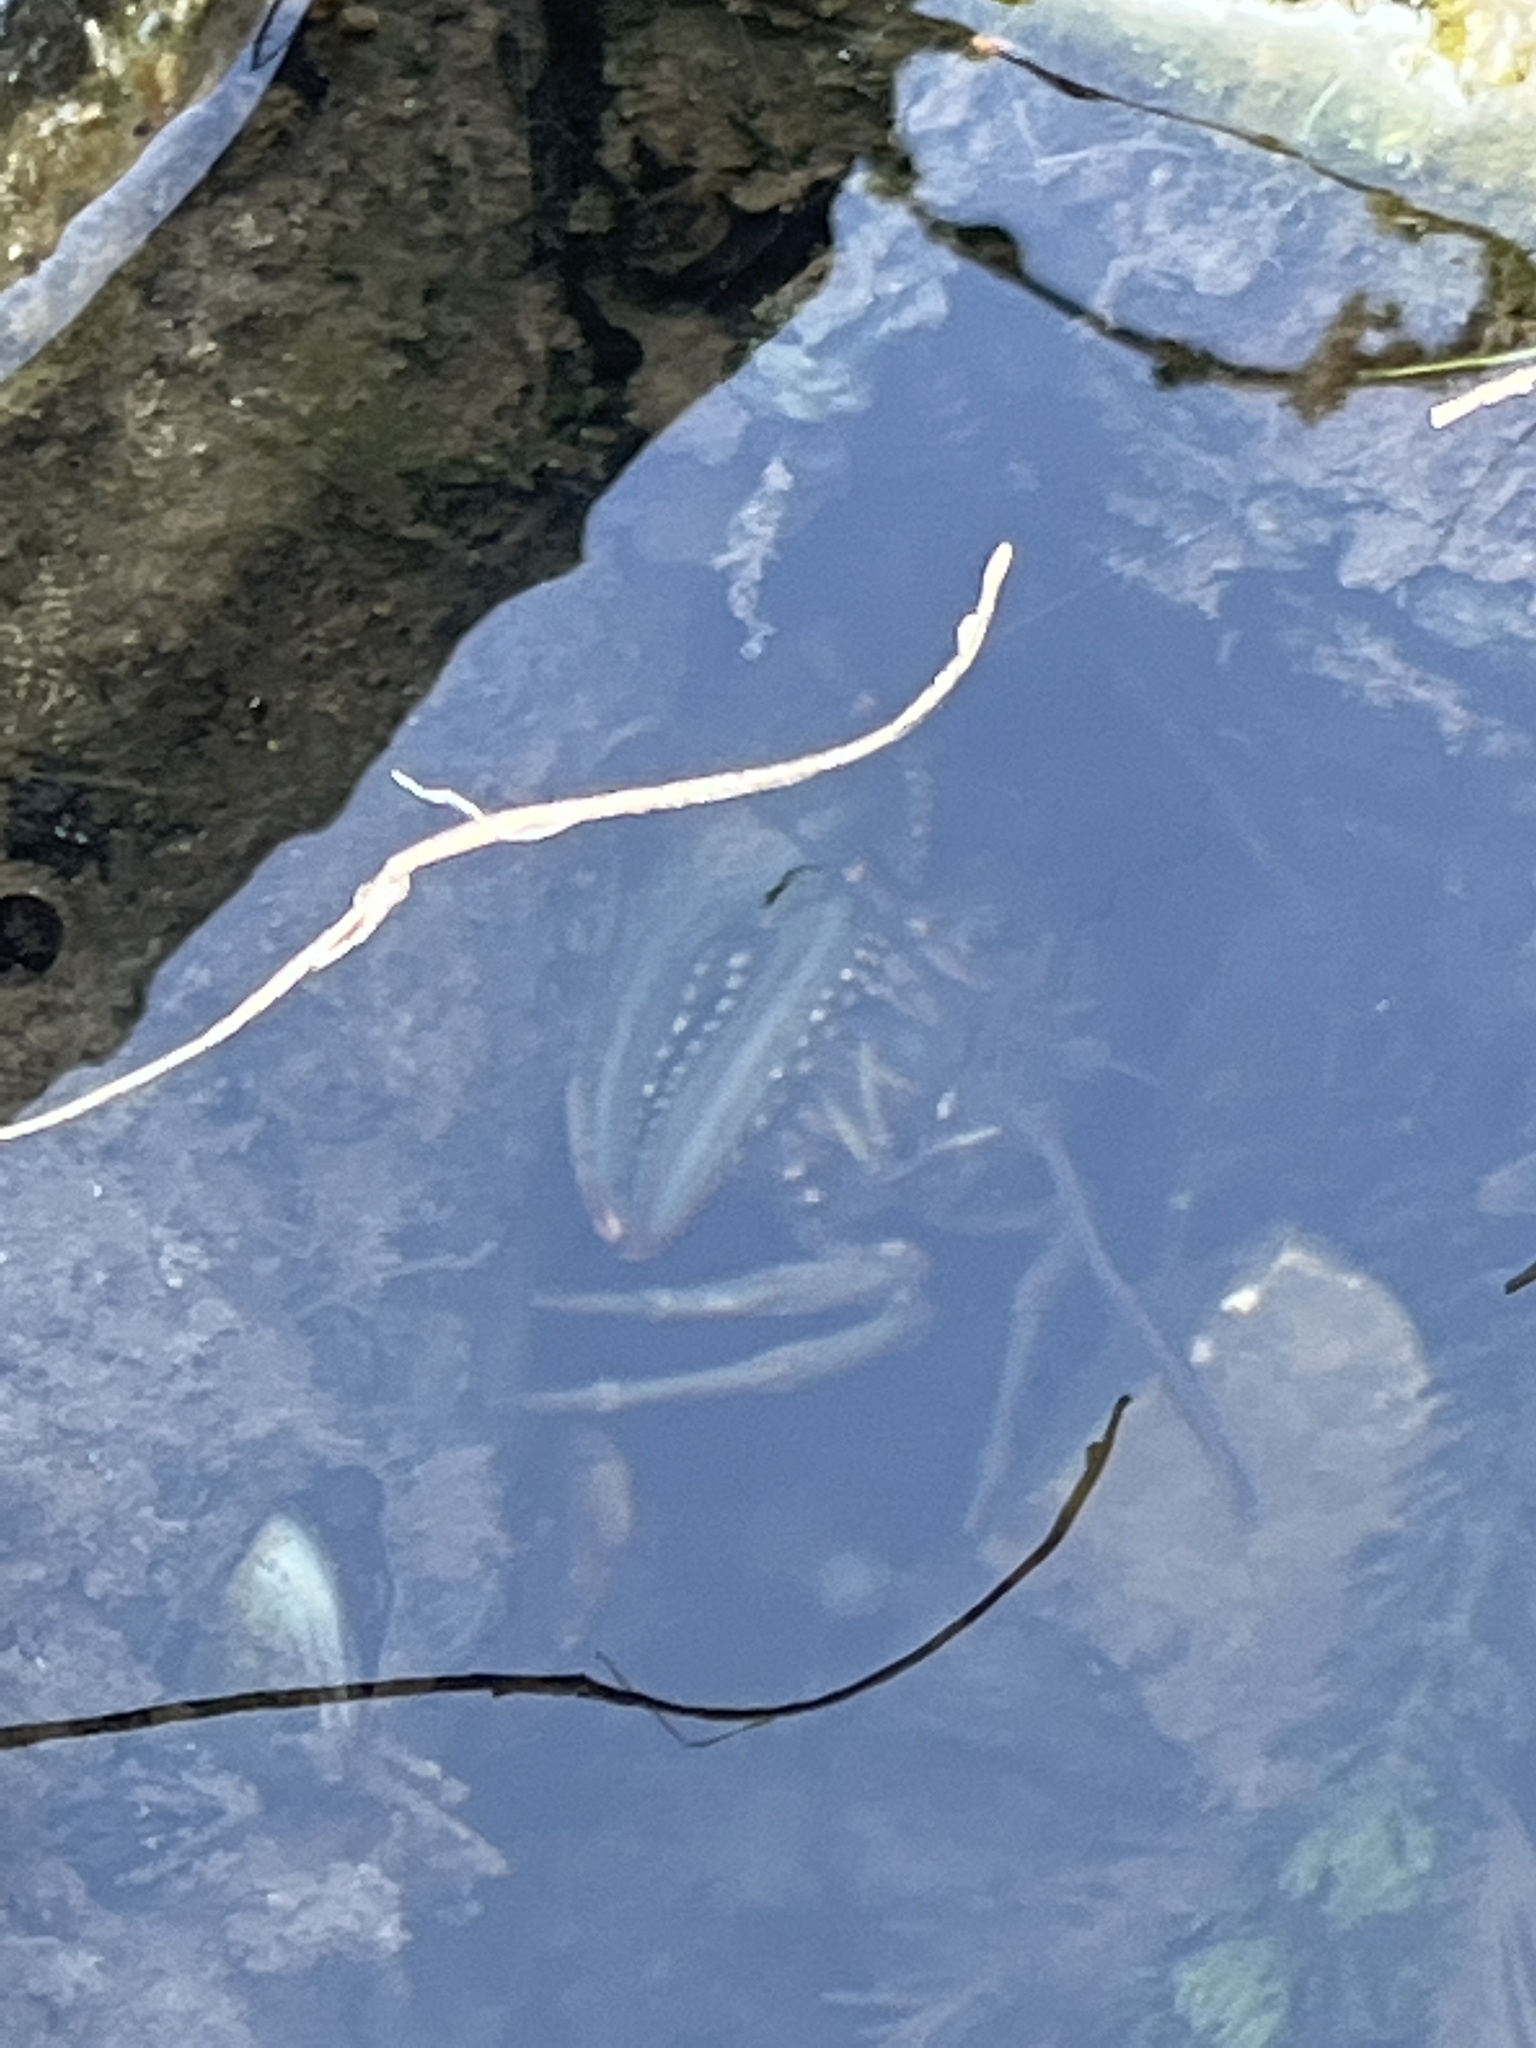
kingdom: Animalia
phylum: Arthropoda
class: Malacostraca
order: Decapoda
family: Cambaridae
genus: Faxonius
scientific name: Faxonius virilis
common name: Virile crayfish
